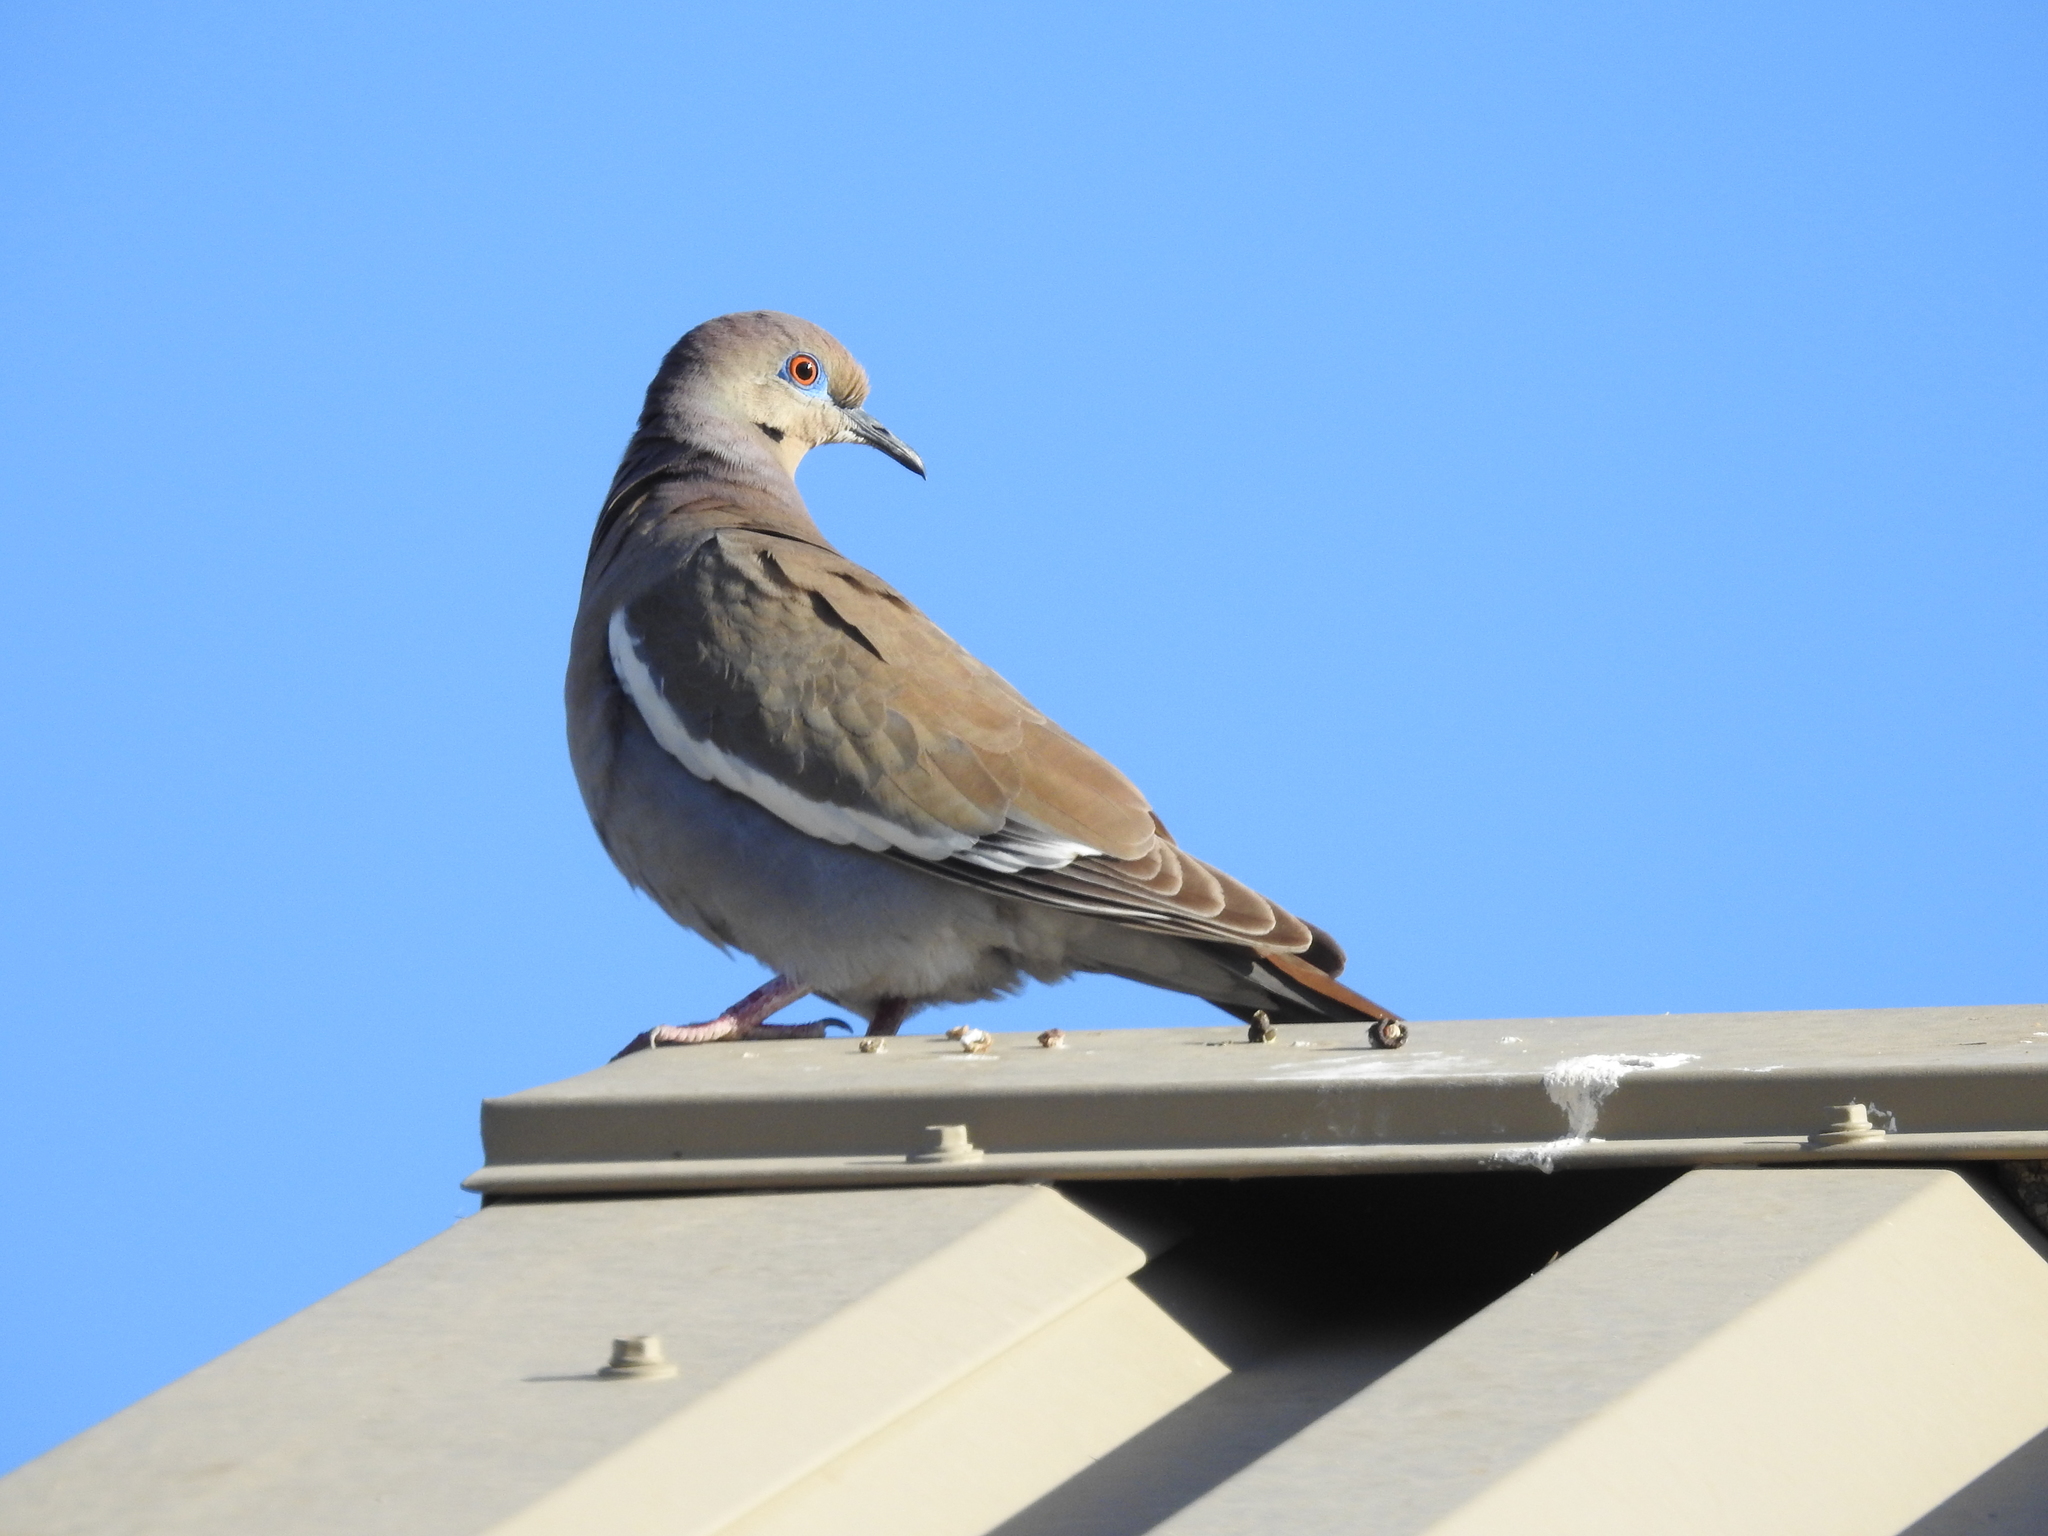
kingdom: Animalia
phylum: Chordata
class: Aves
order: Columbiformes
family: Columbidae
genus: Zenaida
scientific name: Zenaida asiatica
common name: White-winged dove
